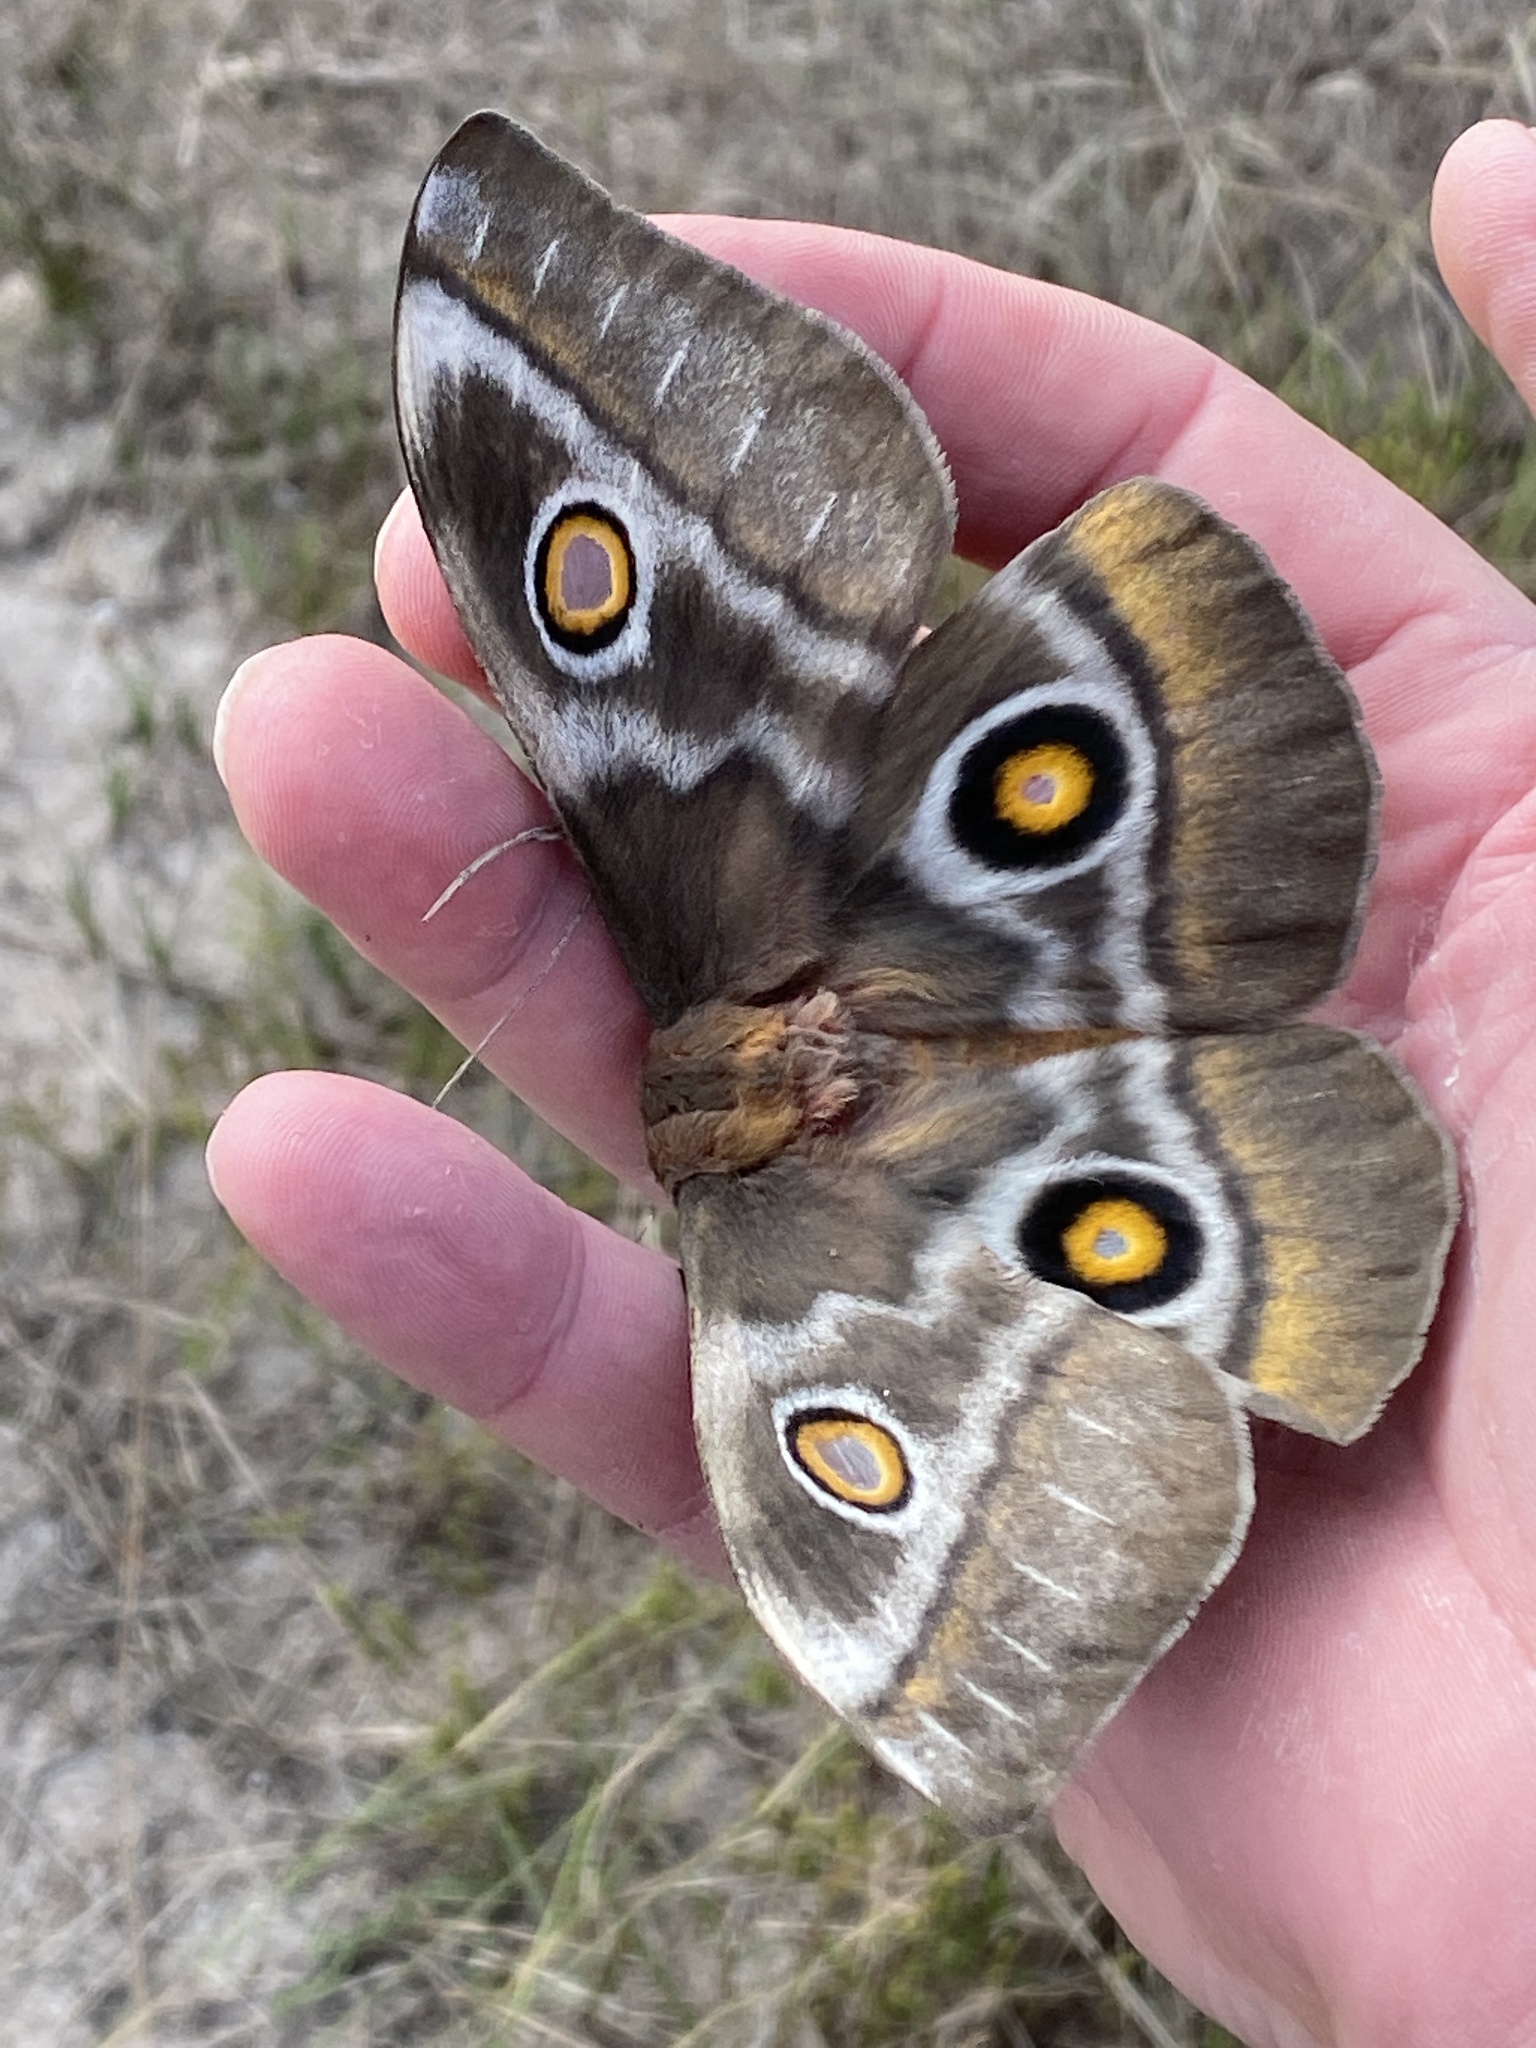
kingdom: Animalia
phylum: Arthropoda
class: Insecta
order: Lepidoptera
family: Saturniidae
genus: Nudaurelia
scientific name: Nudaurelia cytherea
